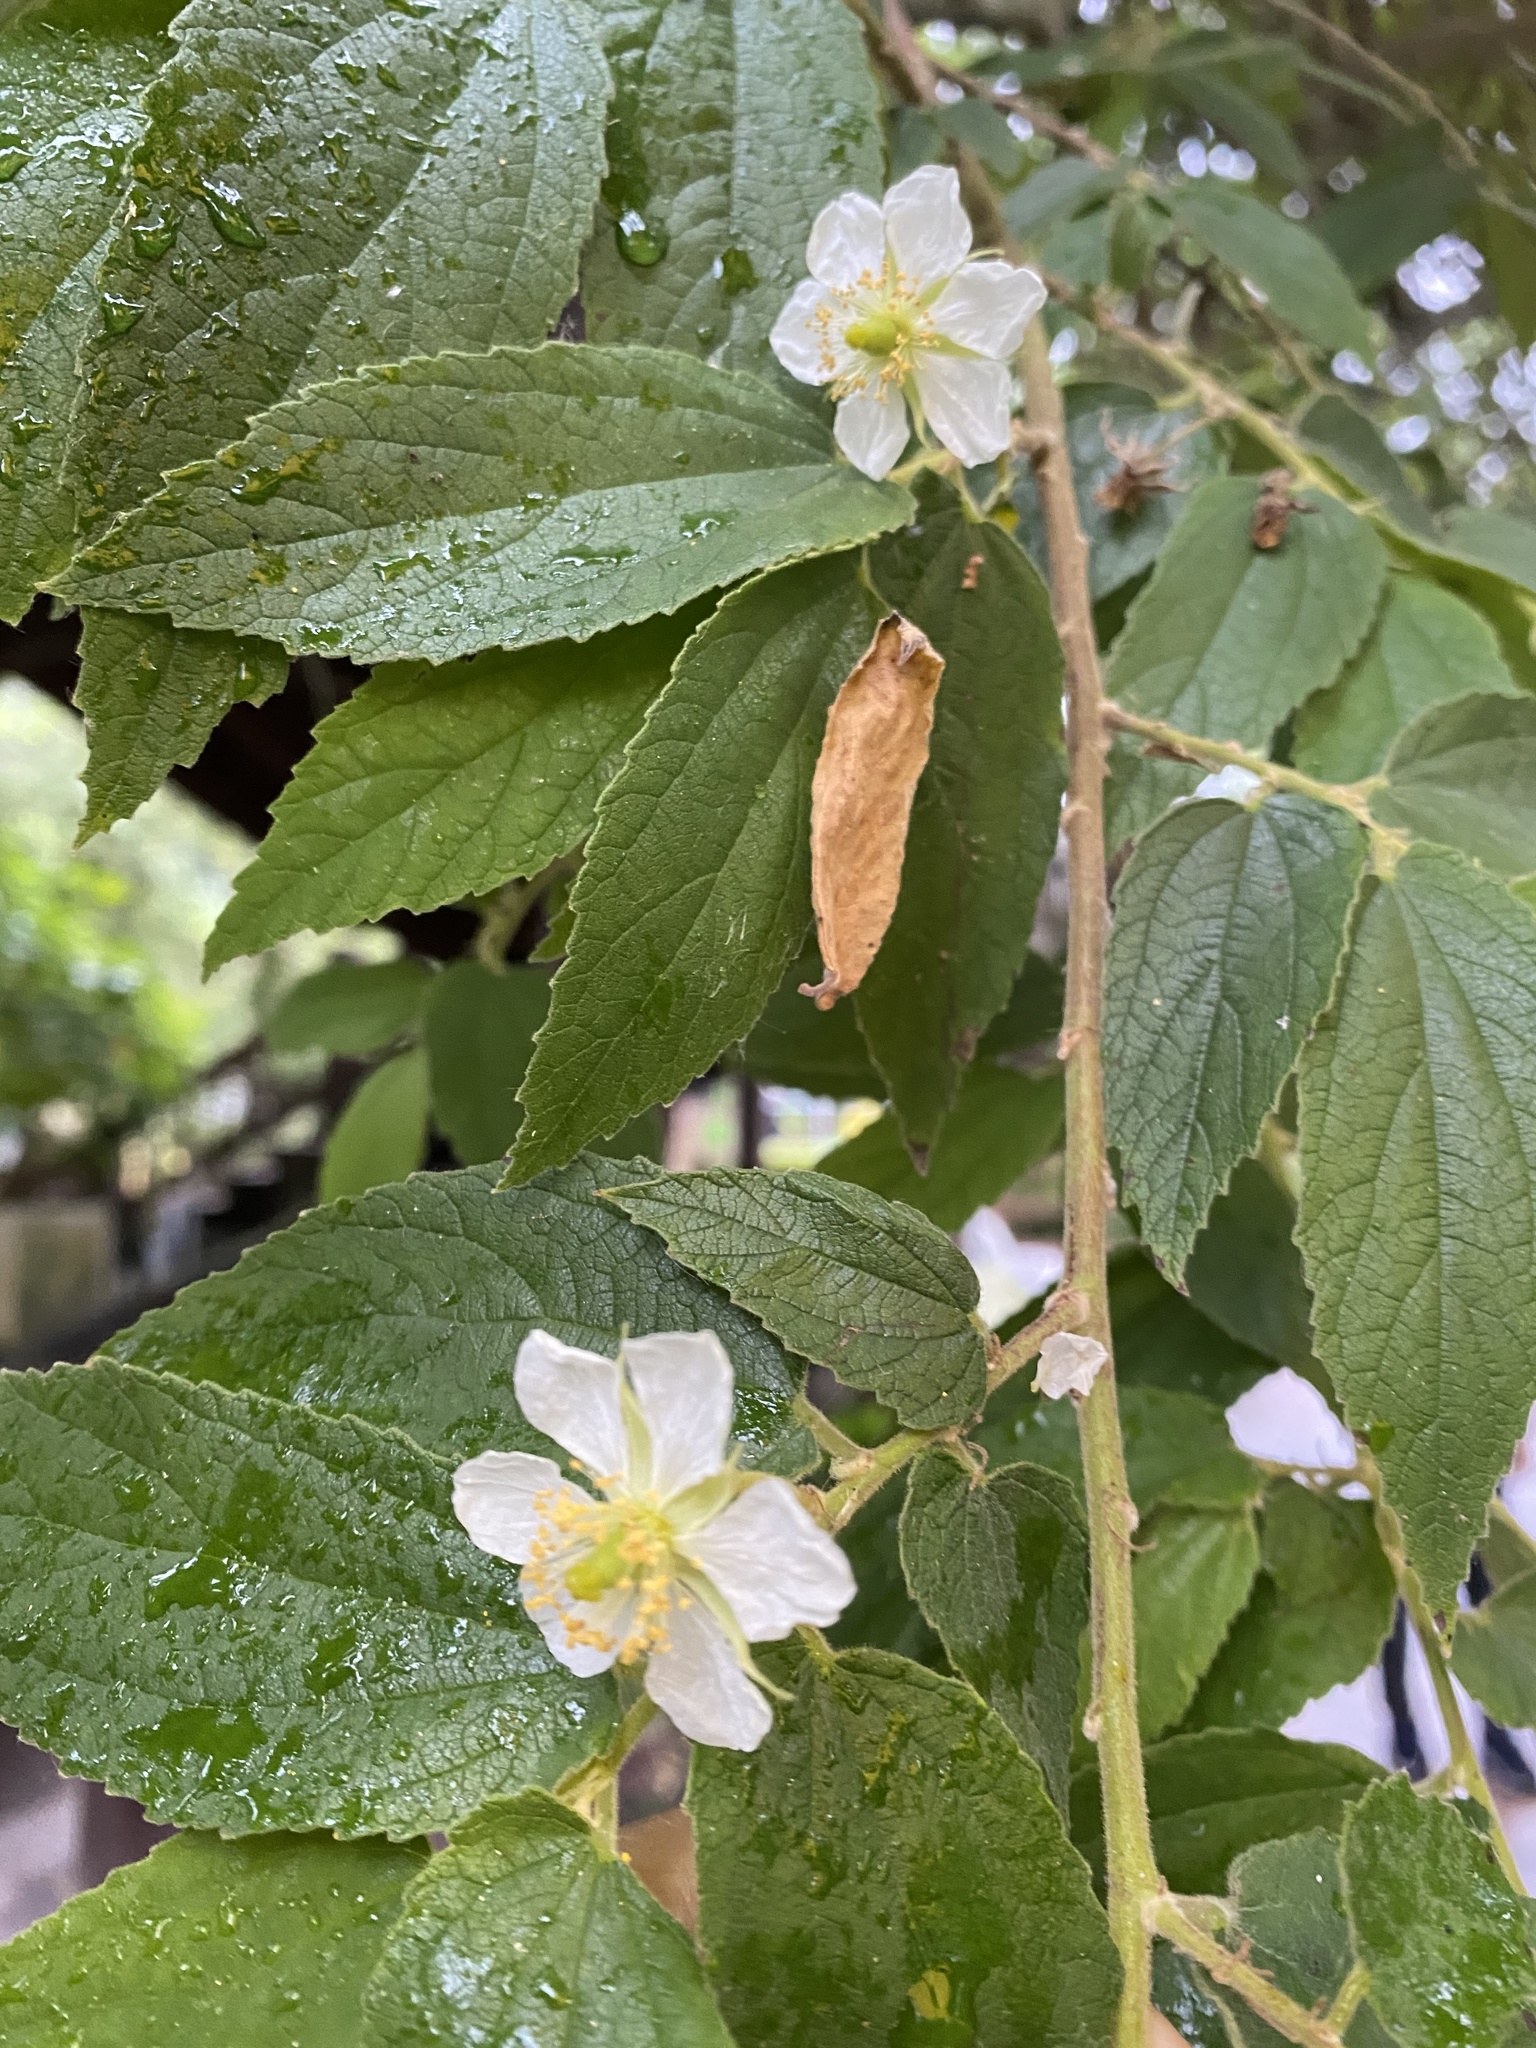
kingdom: Plantae
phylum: Tracheophyta
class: Magnoliopsida
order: Malvales
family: Muntingiaceae
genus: Muntingia
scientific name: Muntingia calabura
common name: Strawberrytree
